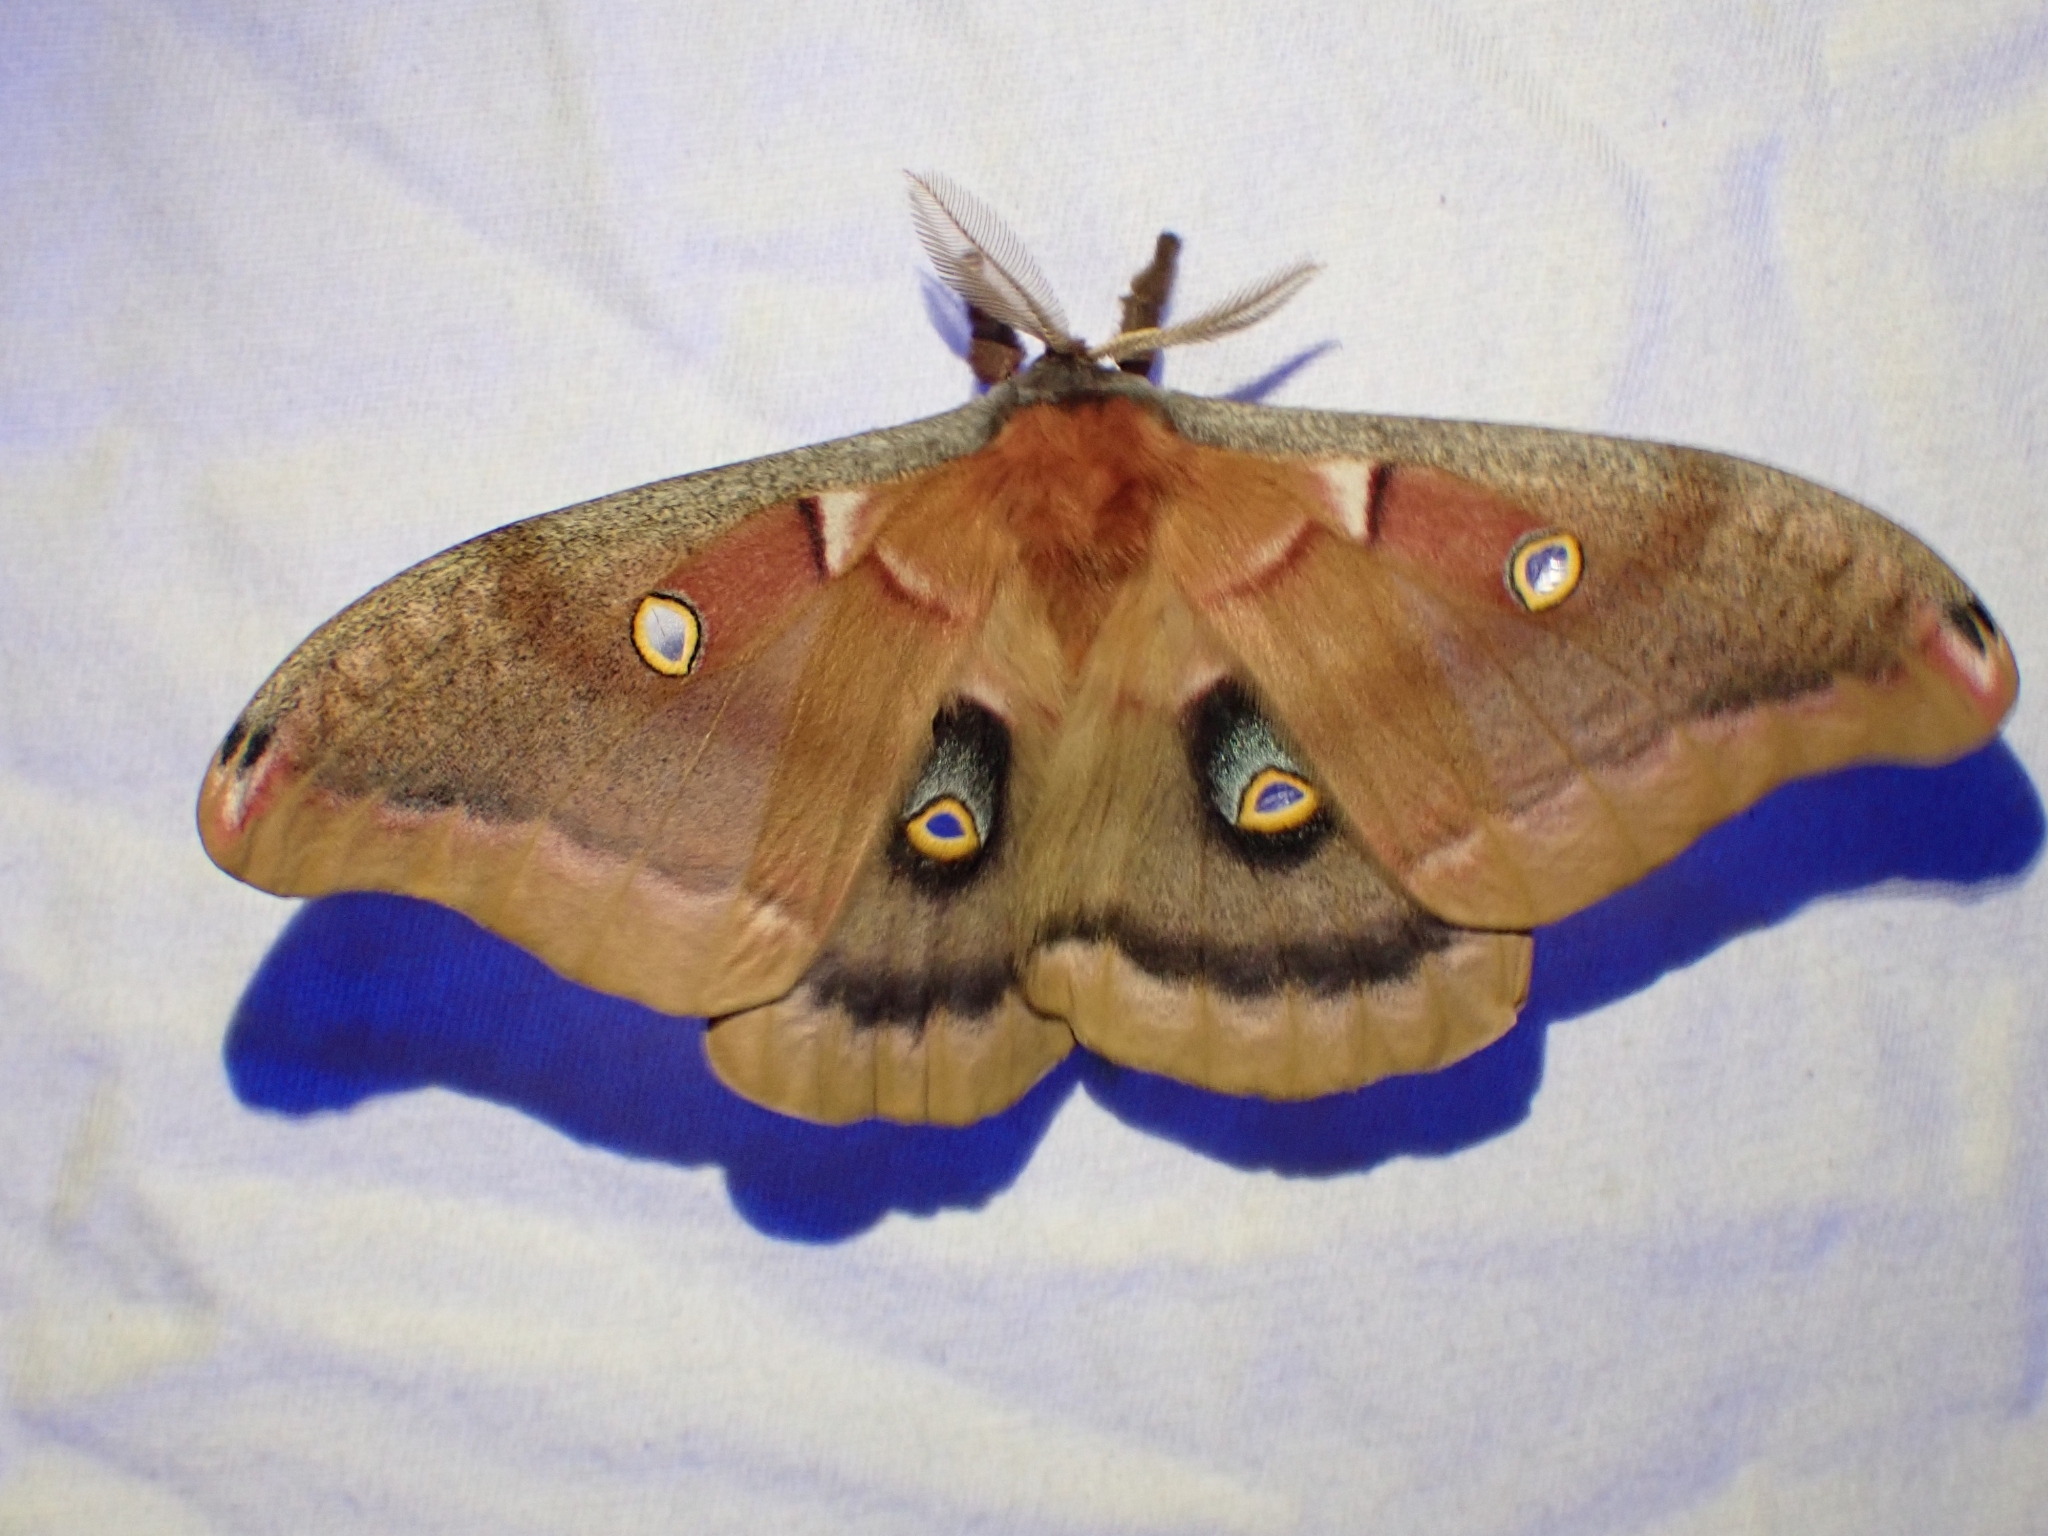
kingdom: Animalia
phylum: Arthropoda
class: Insecta
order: Lepidoptera
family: Saturniidae
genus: Antheraea
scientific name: Antheraea polyphemus
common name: Polyphemus moth
